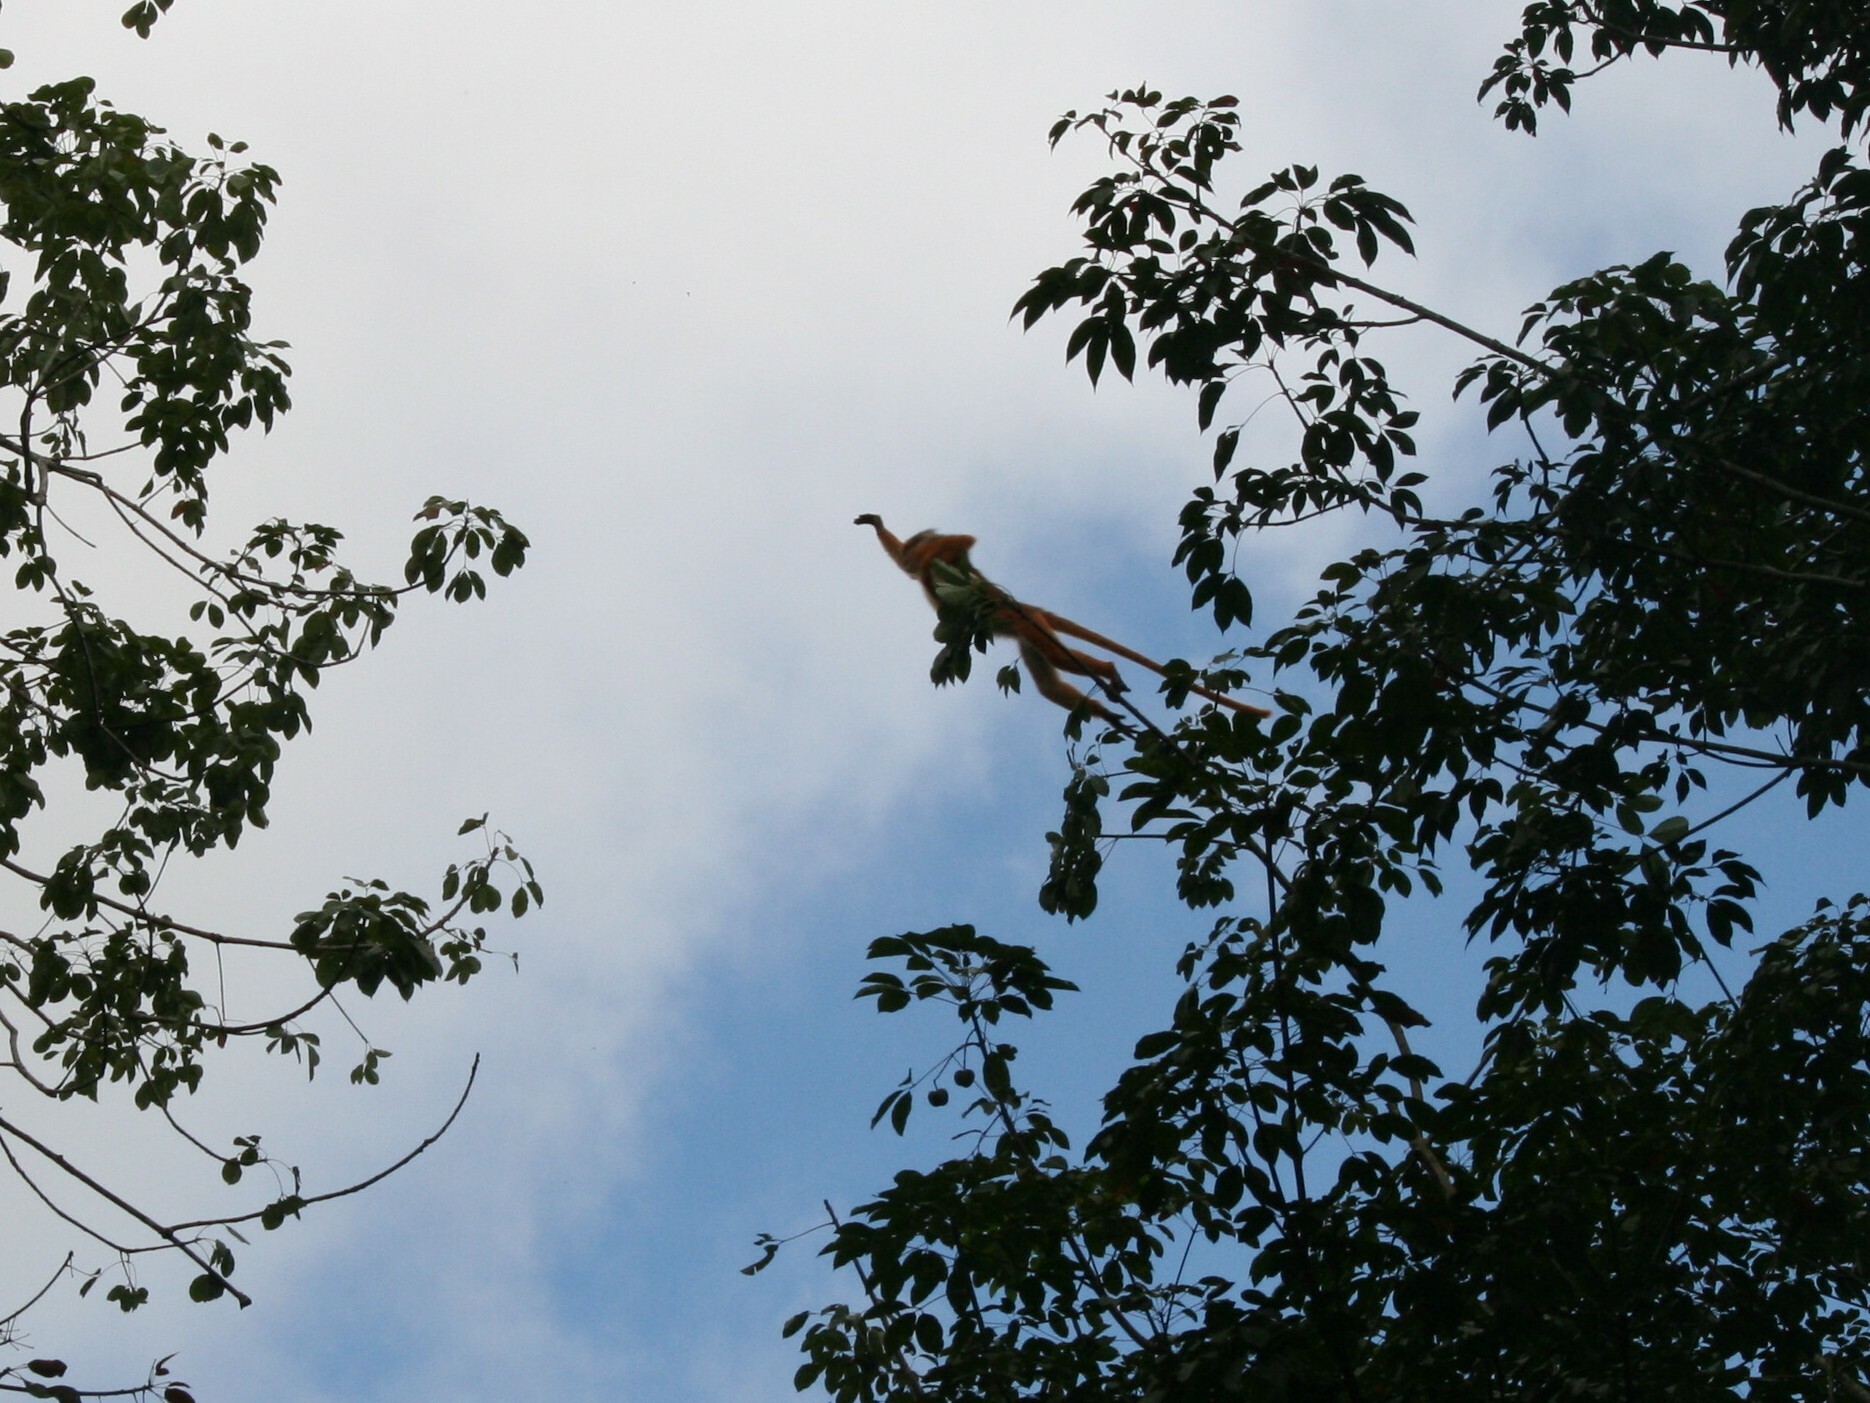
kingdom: Animalia
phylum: Chordata
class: Mammalia
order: Primates
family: Cercopithecidae
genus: Presbytis
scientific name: Presbytis melalophos
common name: Sumatran surili
